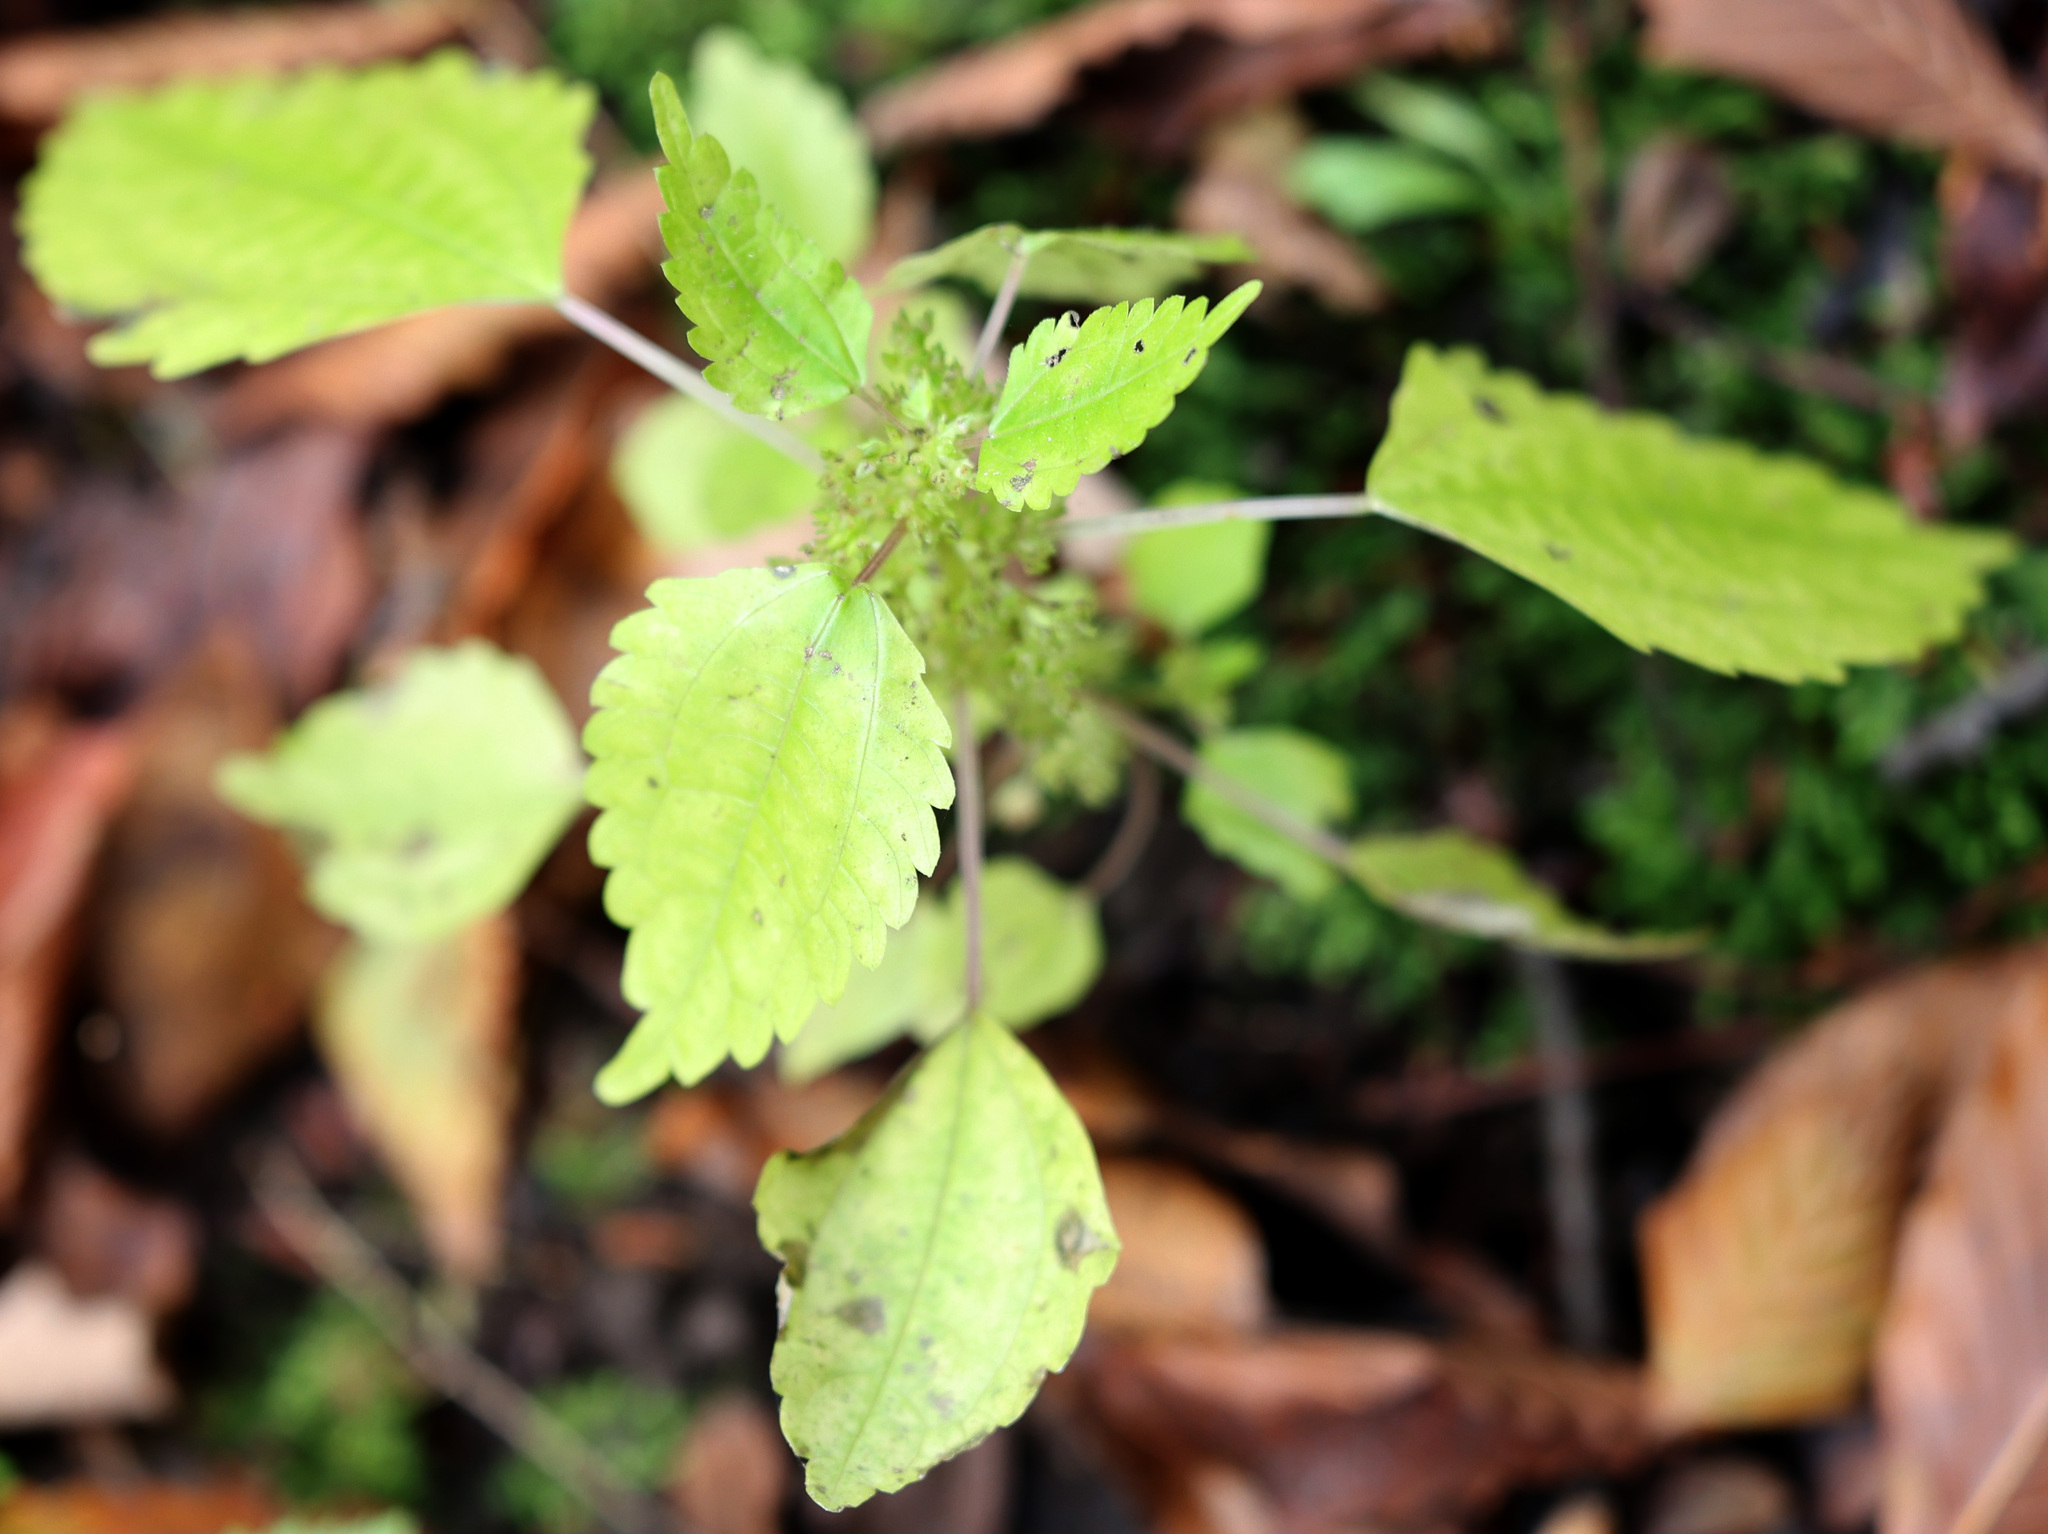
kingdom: Plantae
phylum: Tracheophyta
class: Magnoliopsida
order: Rosales
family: Urticaceae
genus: Pilea
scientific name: Pilea pumila
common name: Clearweed
